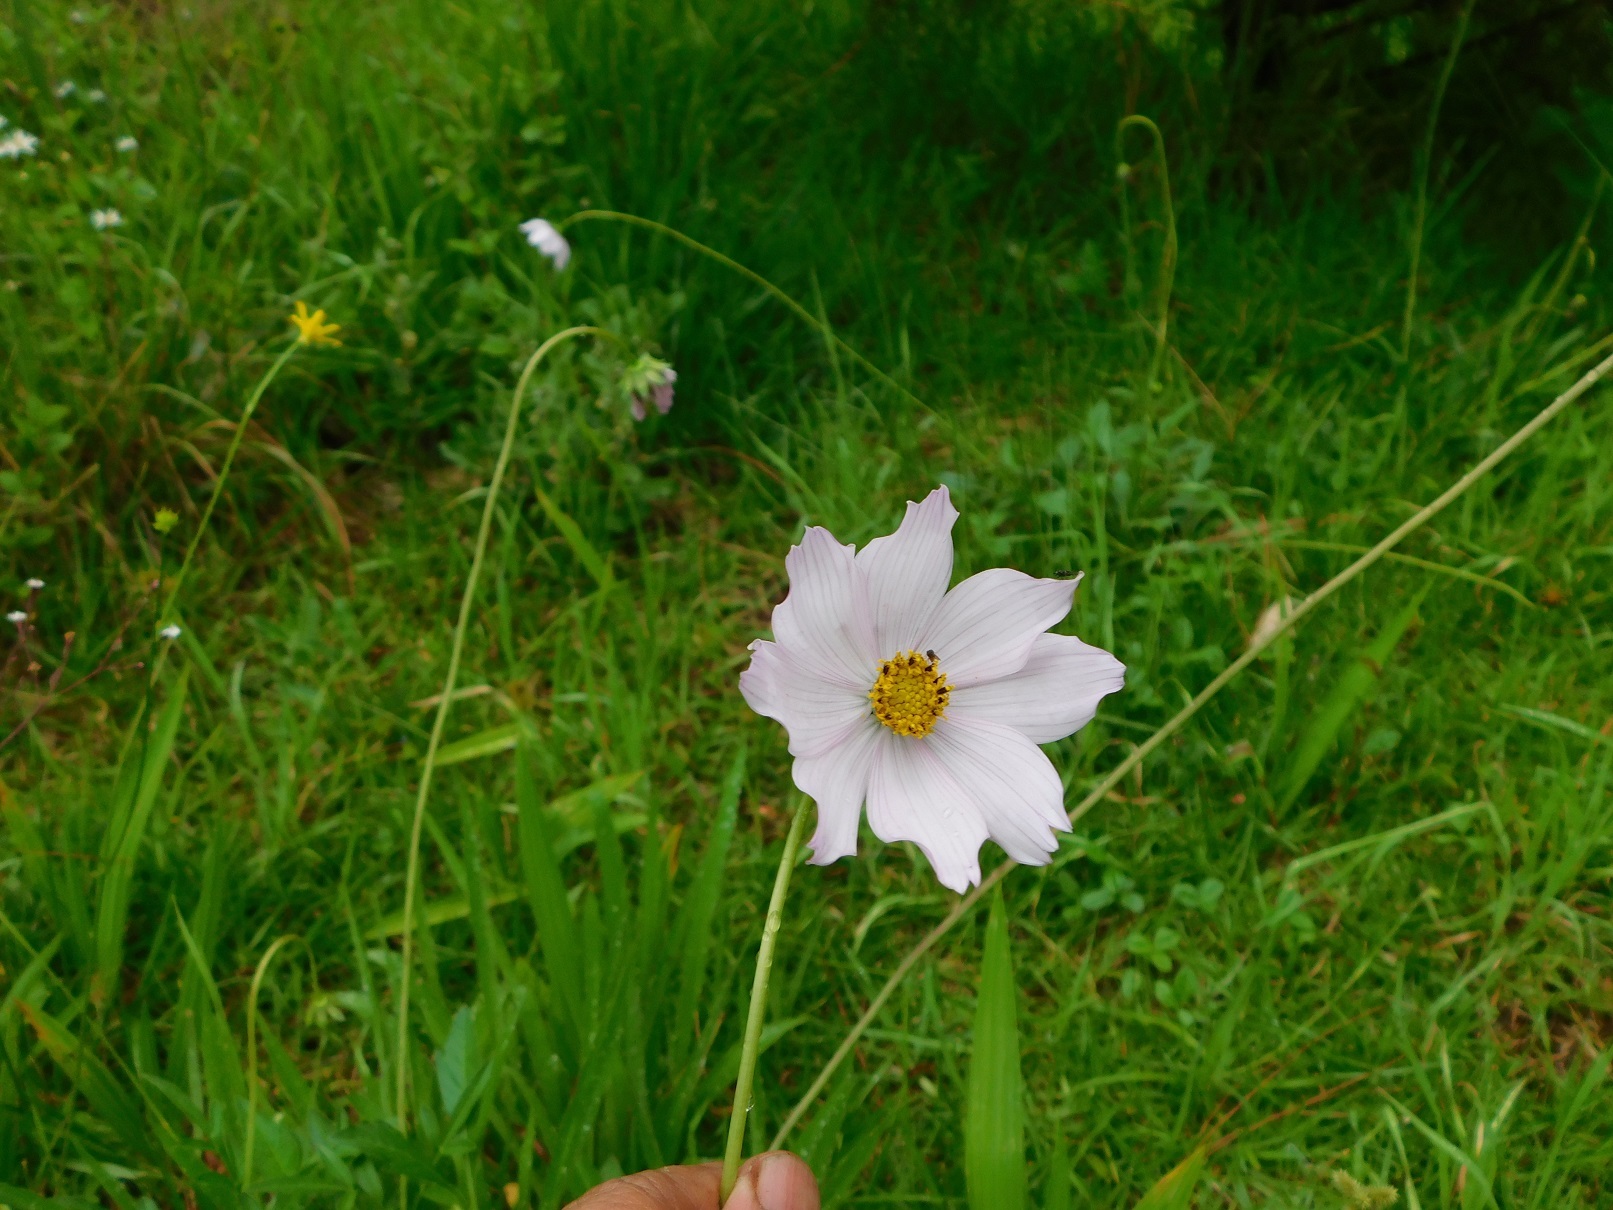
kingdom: Plantae
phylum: Tracheophyta
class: Magnoliopsida
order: Asterales
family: Asteraceae
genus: Cosmos
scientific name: Cosmos diversifolius
